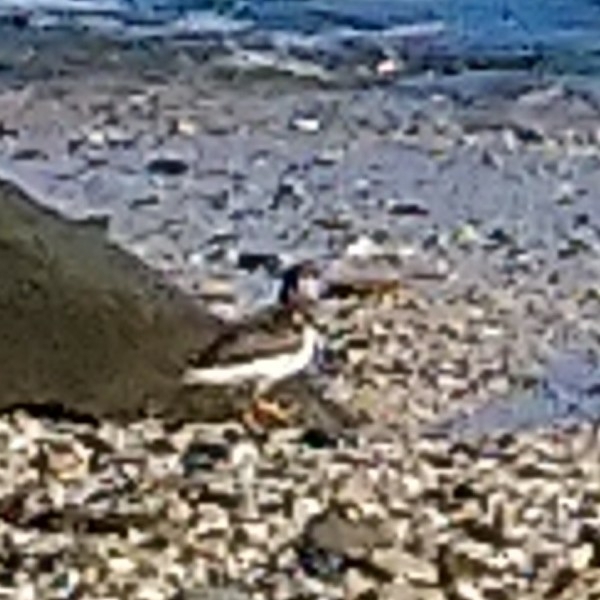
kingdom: Animalia
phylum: Chordata
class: Aves
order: Charadriiformes
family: Scolopacidae
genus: Arenaria
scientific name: Arenaria interpres
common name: Ruddy turnstone
